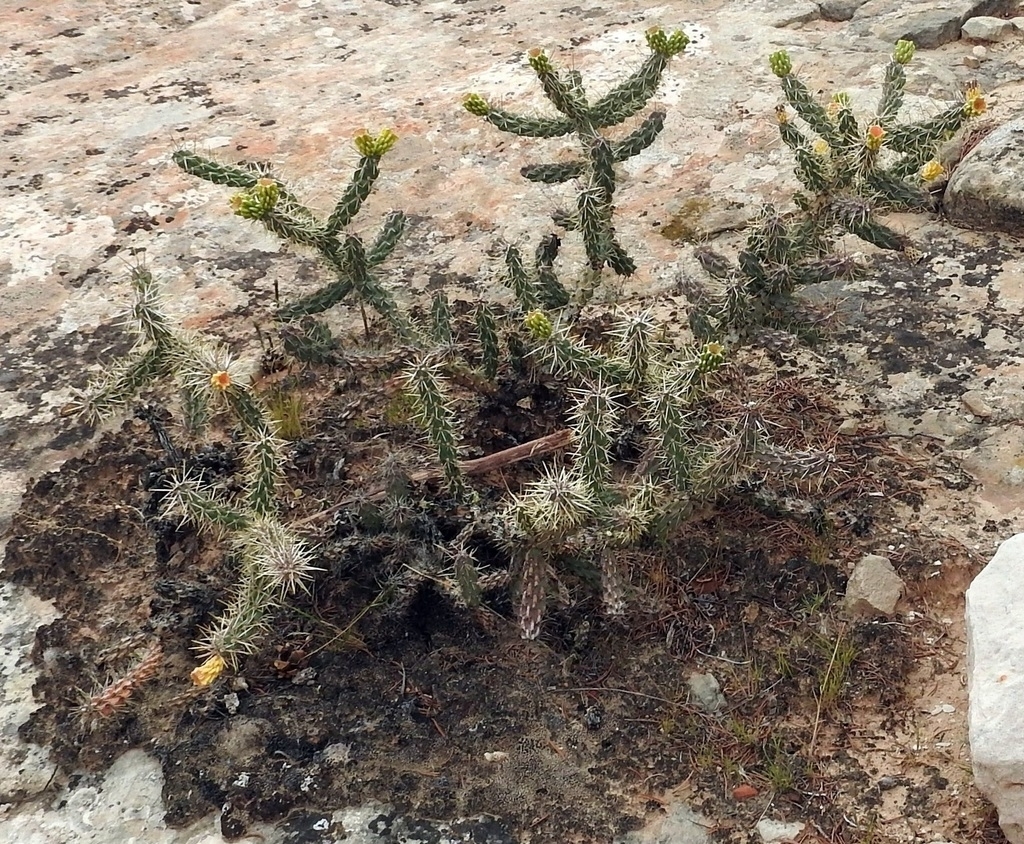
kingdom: Plantae
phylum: Tracheophyta
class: Magnoliopsida
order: Caryophyllales
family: Cactaceae
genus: Cylindropuntia
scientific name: Cylindropuntia viridiflora
